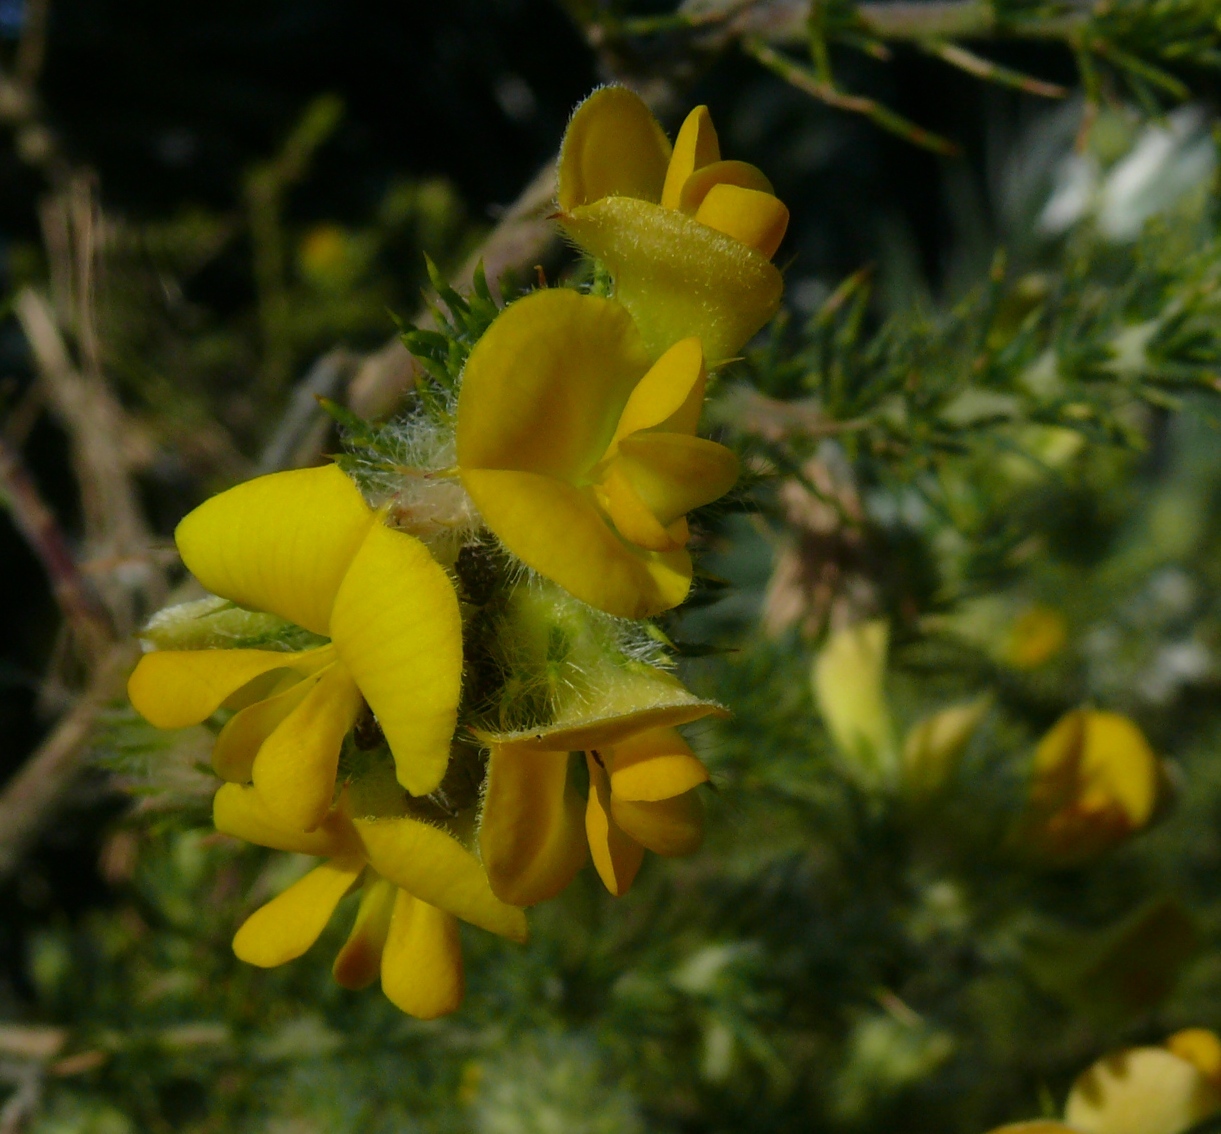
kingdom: Plantae
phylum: Tracheophyta
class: Magnoliopsida
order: Fabales
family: Fabaceae
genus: Aspalathus
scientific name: Aspalathus chenopoda
